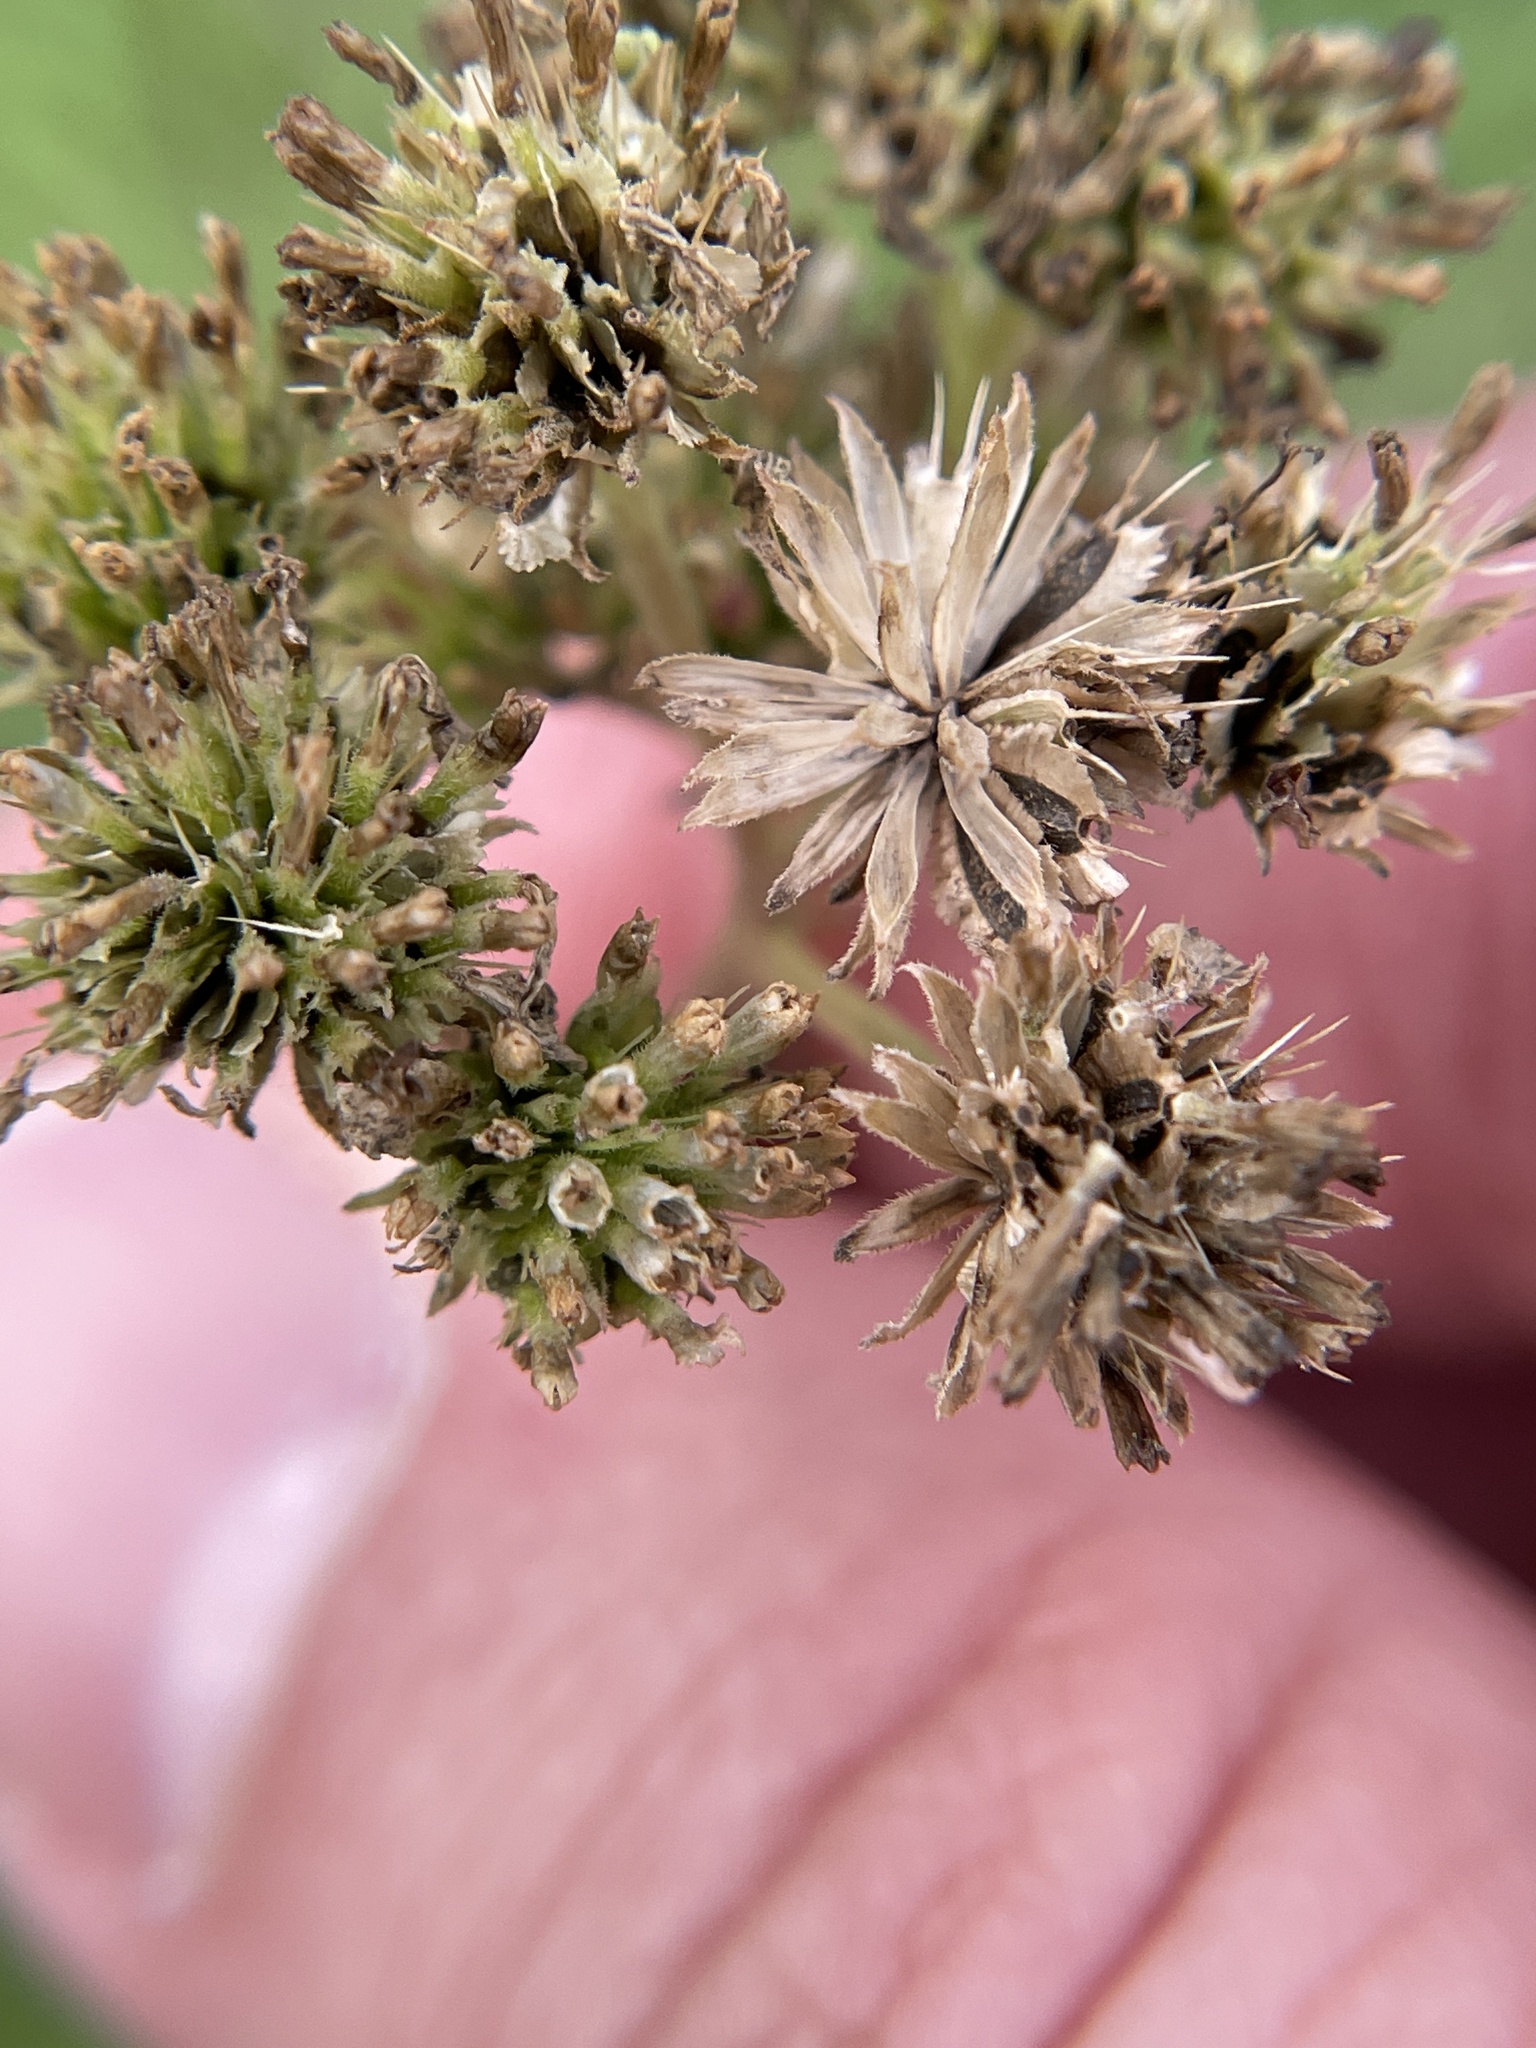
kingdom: Plantae
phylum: Tracheophyta
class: Magnoliopsida
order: Asterales
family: Asteraceae
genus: Verbesina
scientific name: Verbesina microptera
